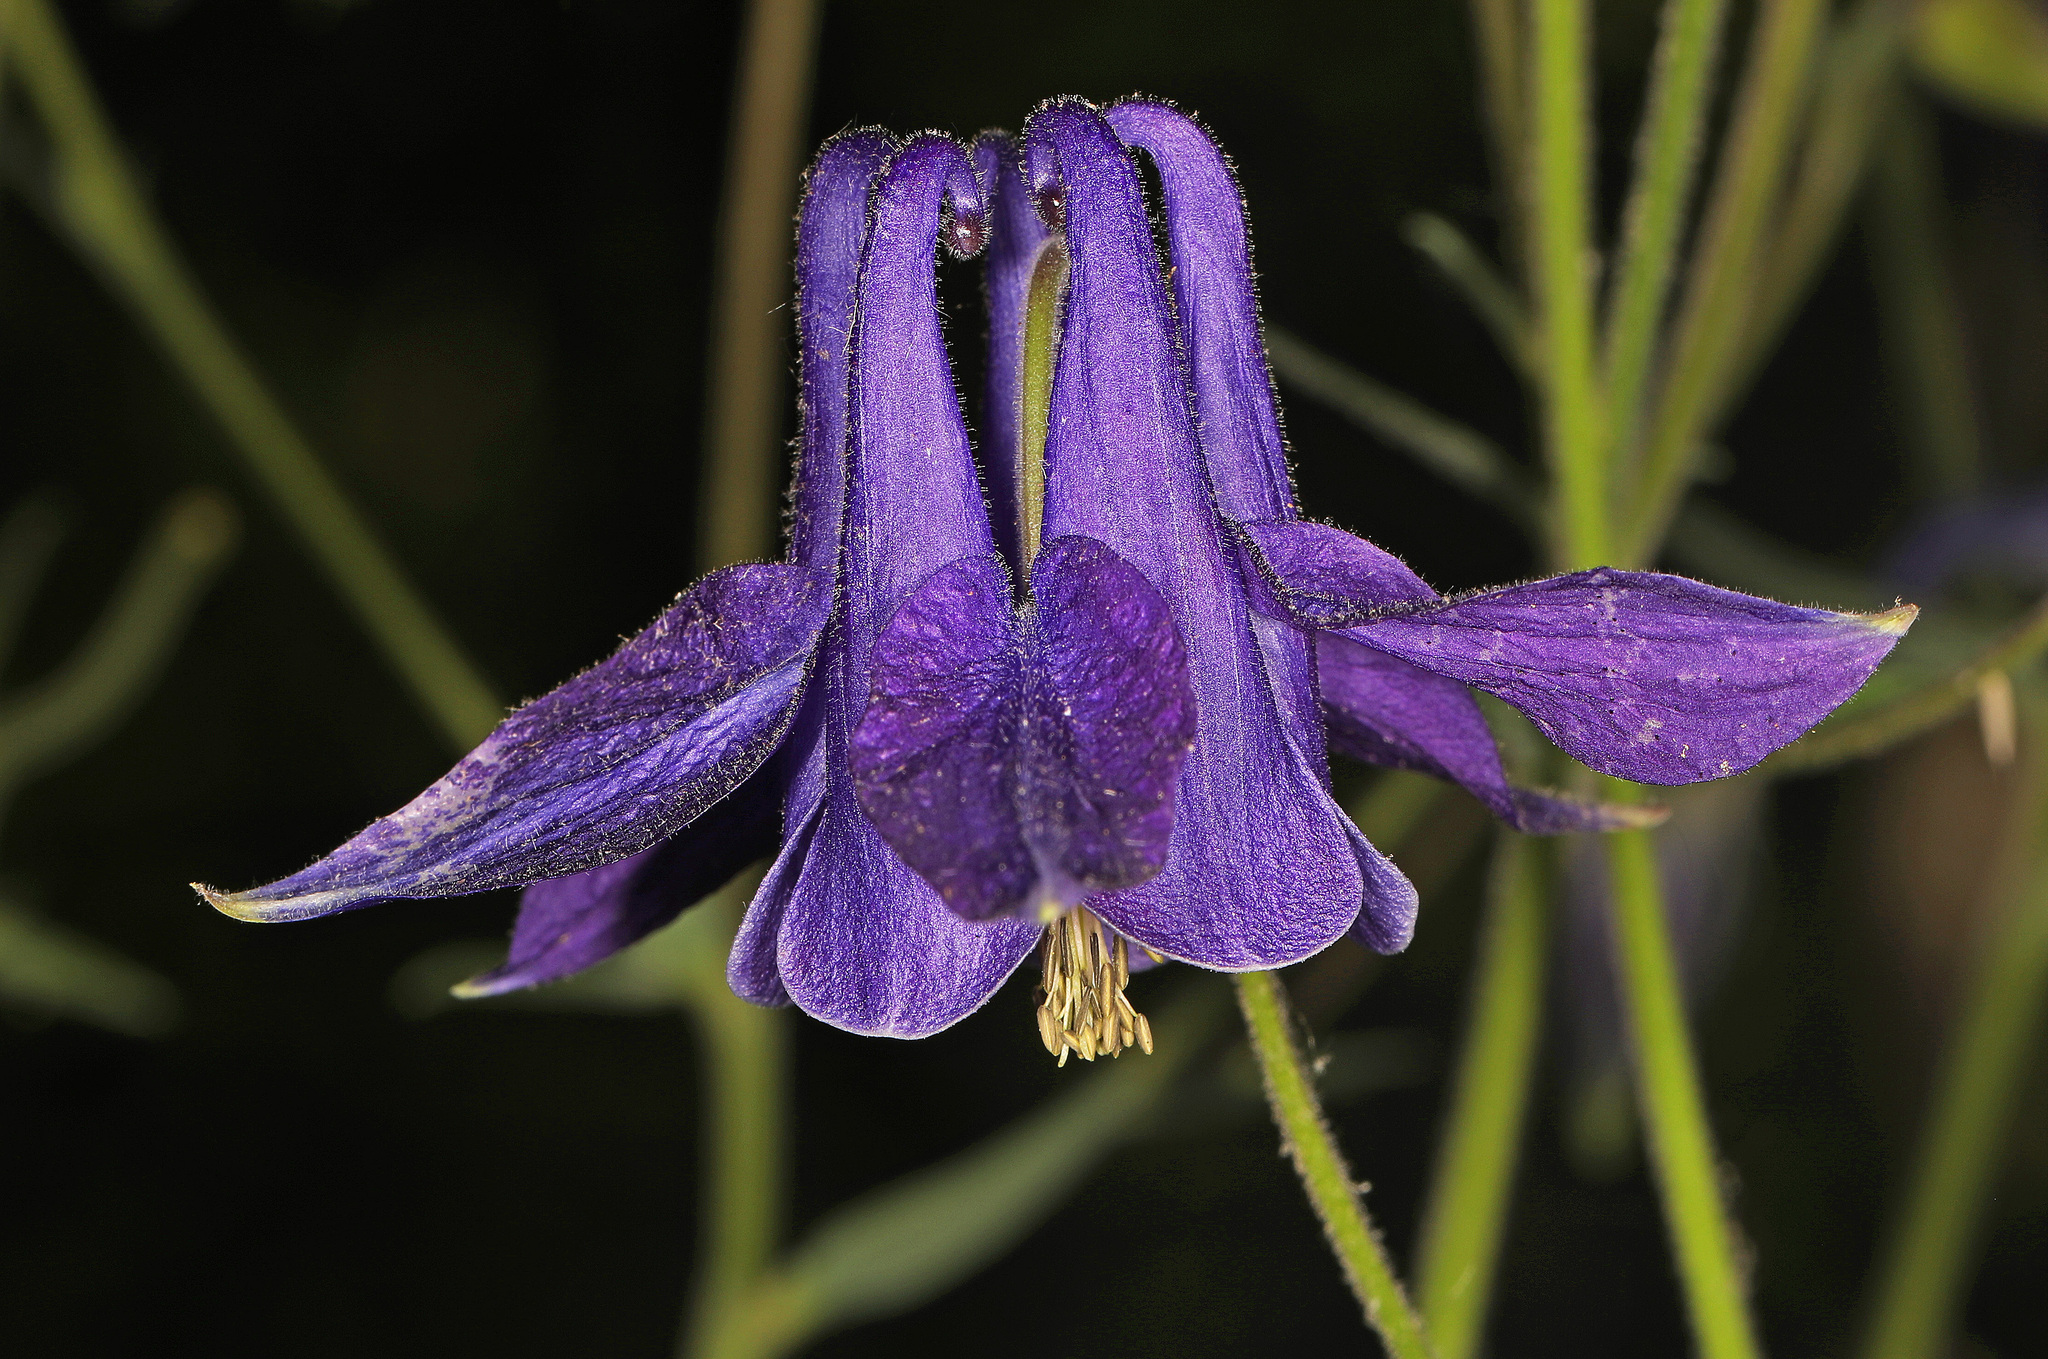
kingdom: Plantae
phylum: Tracheophyta
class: Magnoliopsida
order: Ranunculales
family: Ranunculaceae
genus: Aquilegia
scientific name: Aquilegia vulgaris
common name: Columbine
